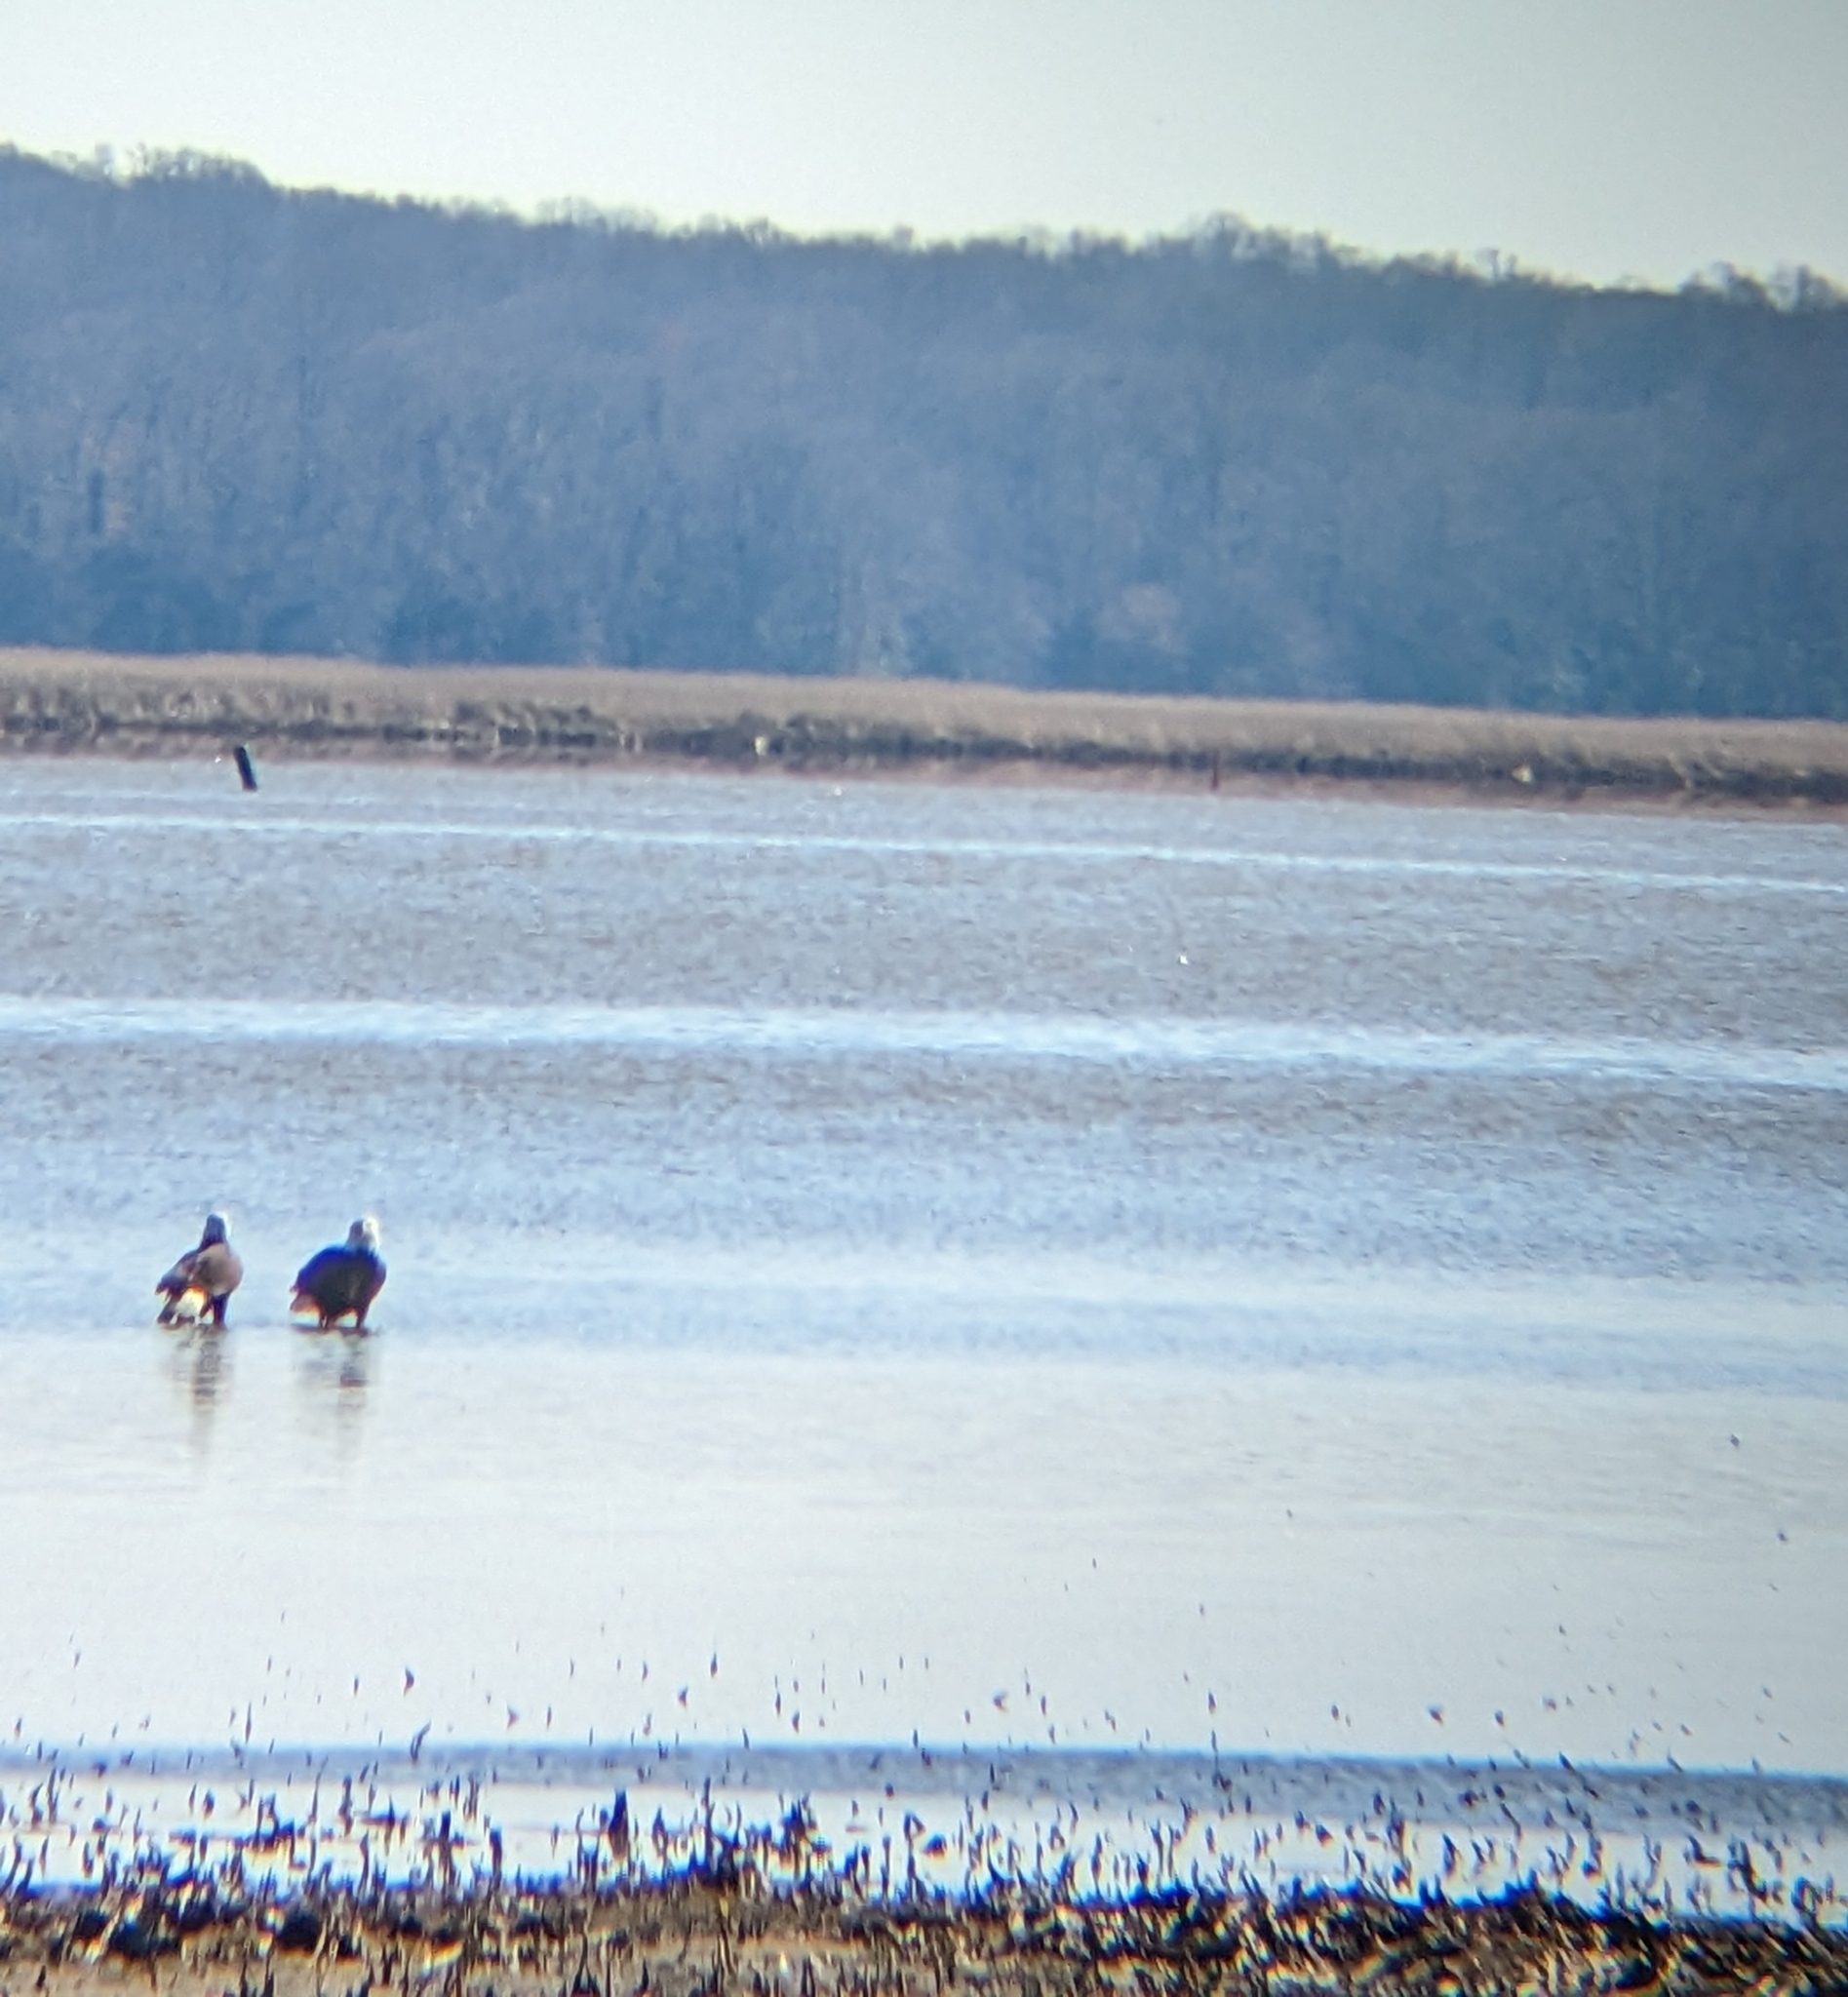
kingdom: Animalia
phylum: Chordata
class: Aves
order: Accipitriformes
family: Accipitridae
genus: Haliaeetus
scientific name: Haliaeetus leucocephalus
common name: Bald eagle
